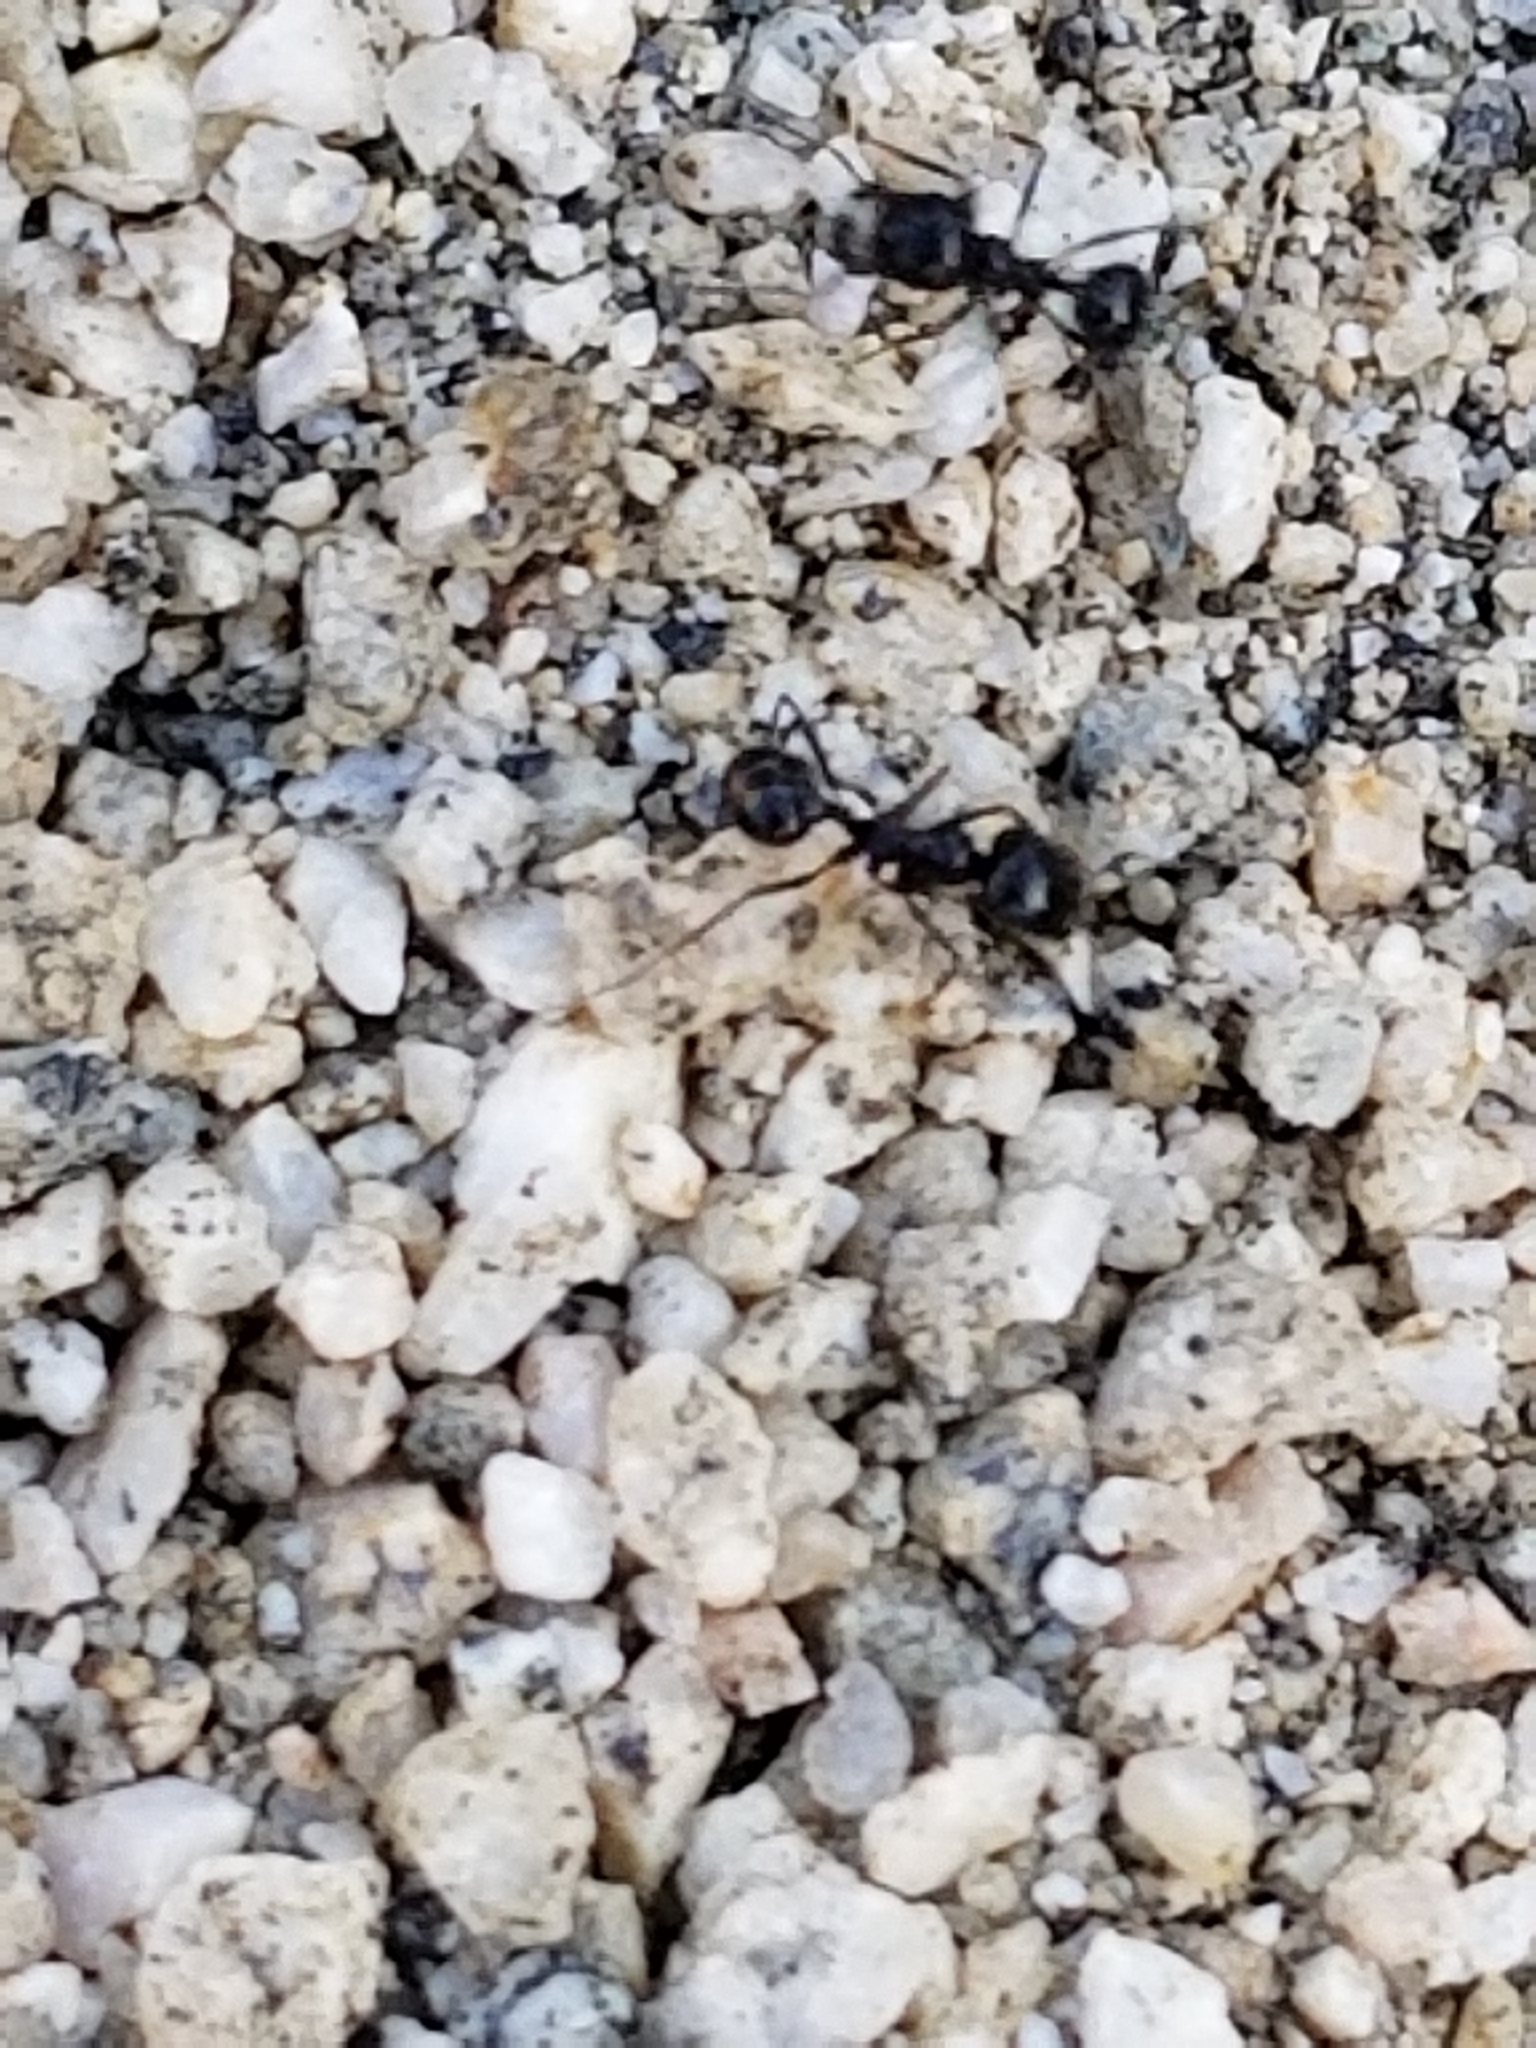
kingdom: Animalia
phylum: Arthropoda
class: Insecta
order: Hymenoptera
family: Formicidae
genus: Messor
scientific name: Messor pergandei
